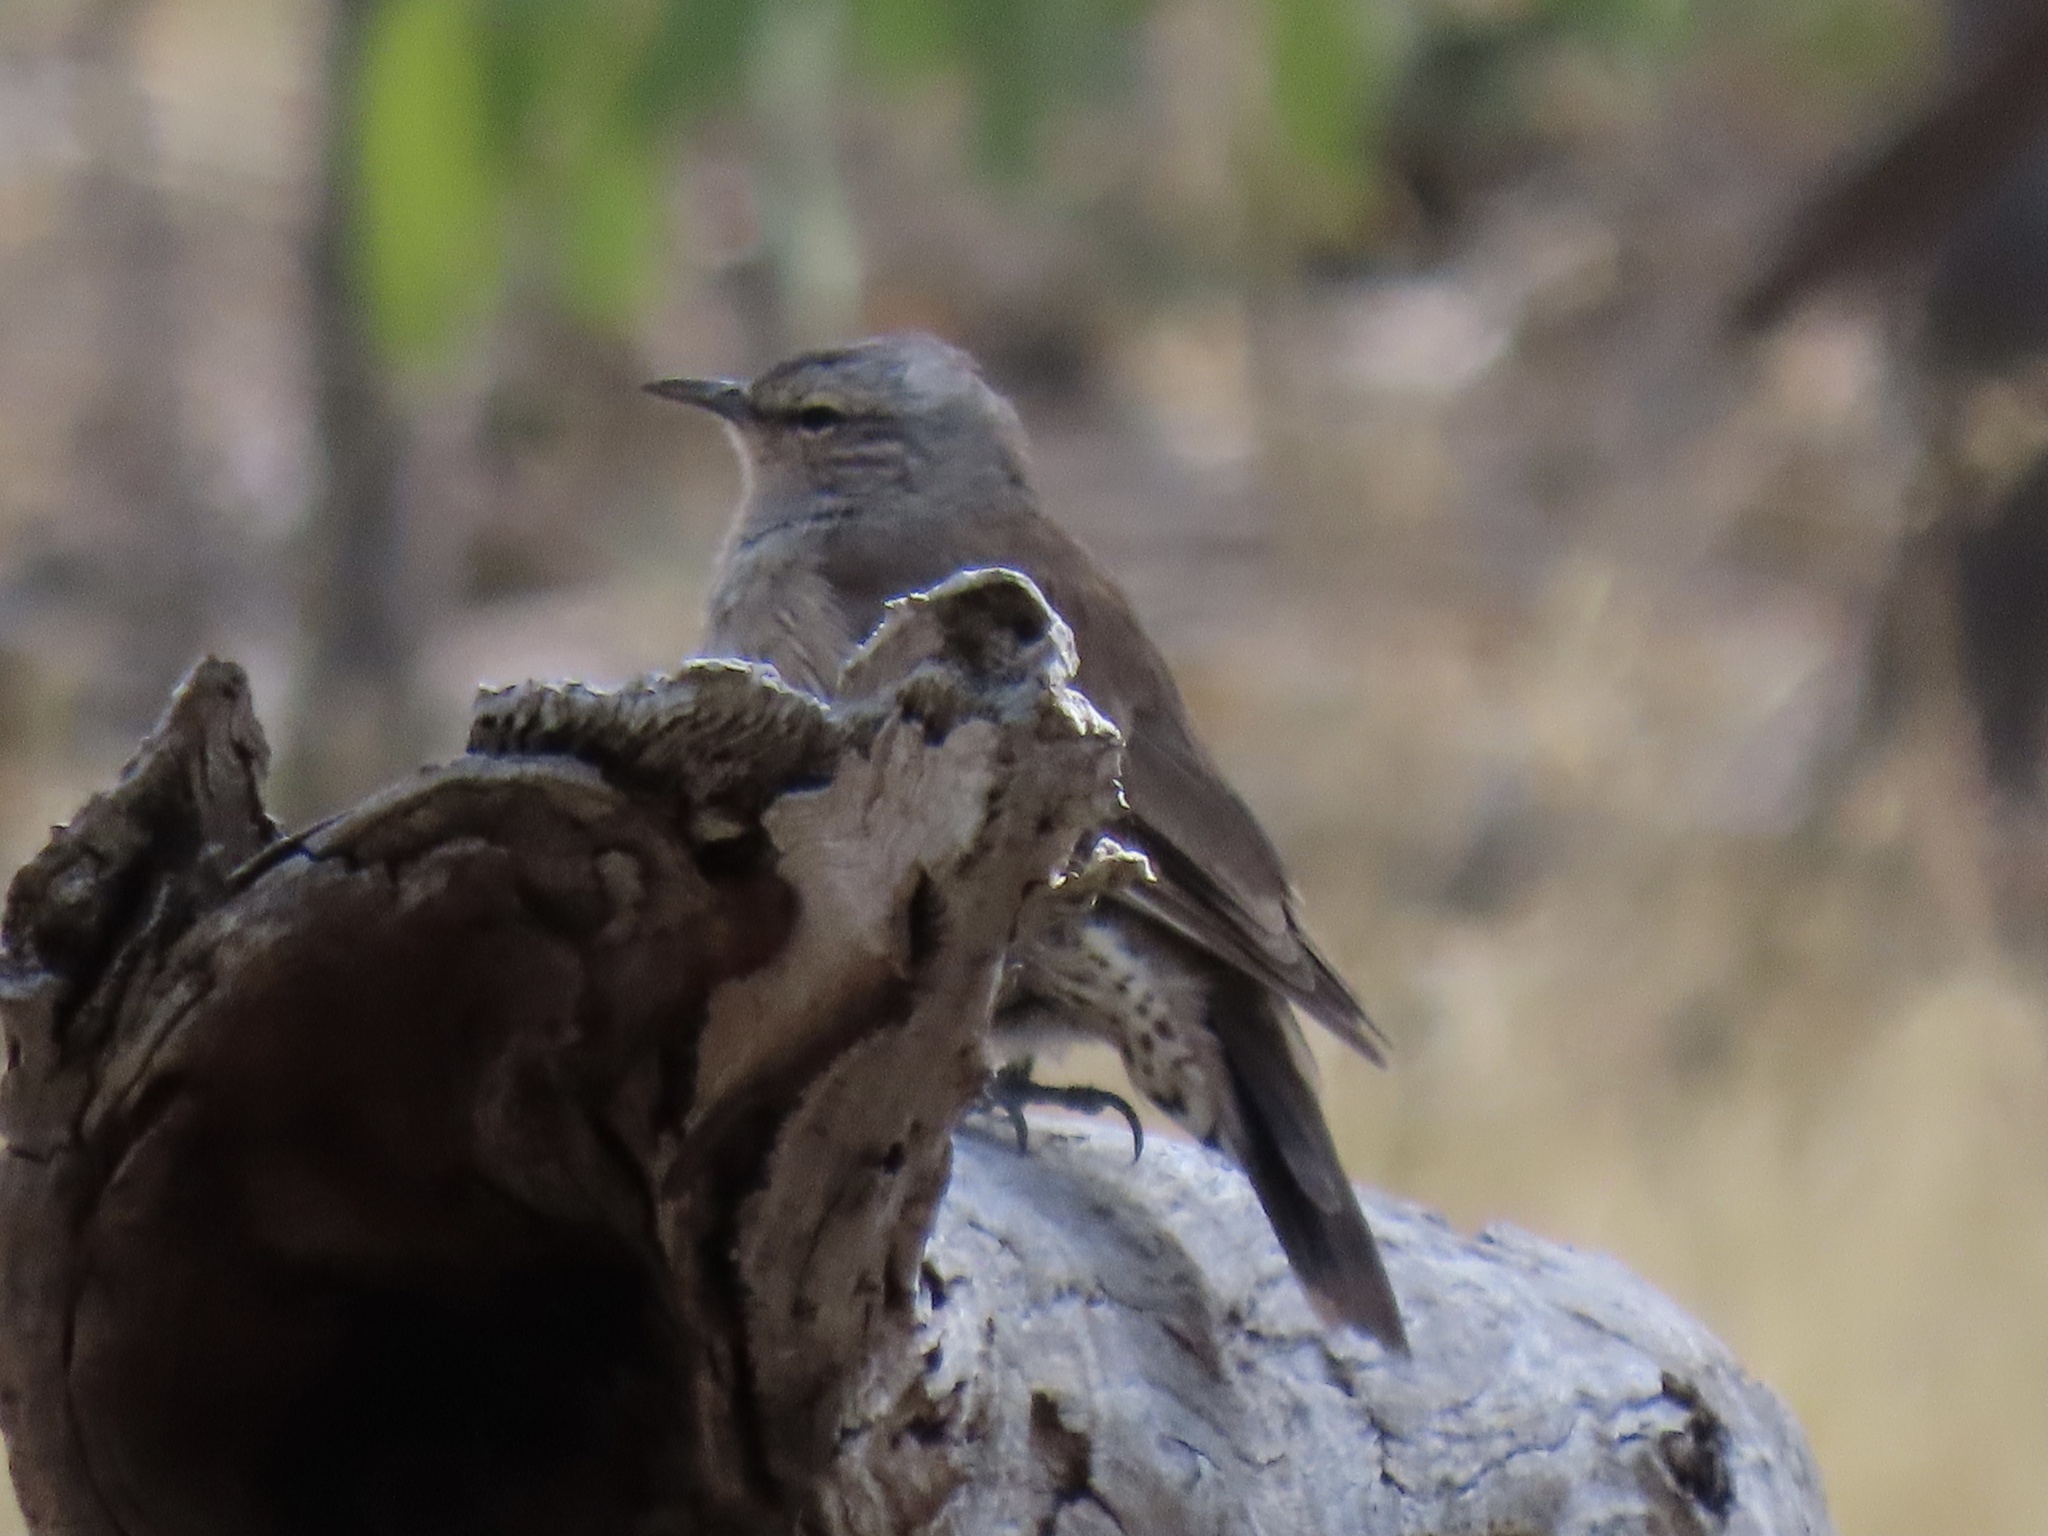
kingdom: Animalia
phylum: Chordata
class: Aves
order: Passeriformes
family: Climacteridae
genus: Climacteris
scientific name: Climacteris picumnus
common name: Brown treecreeper
